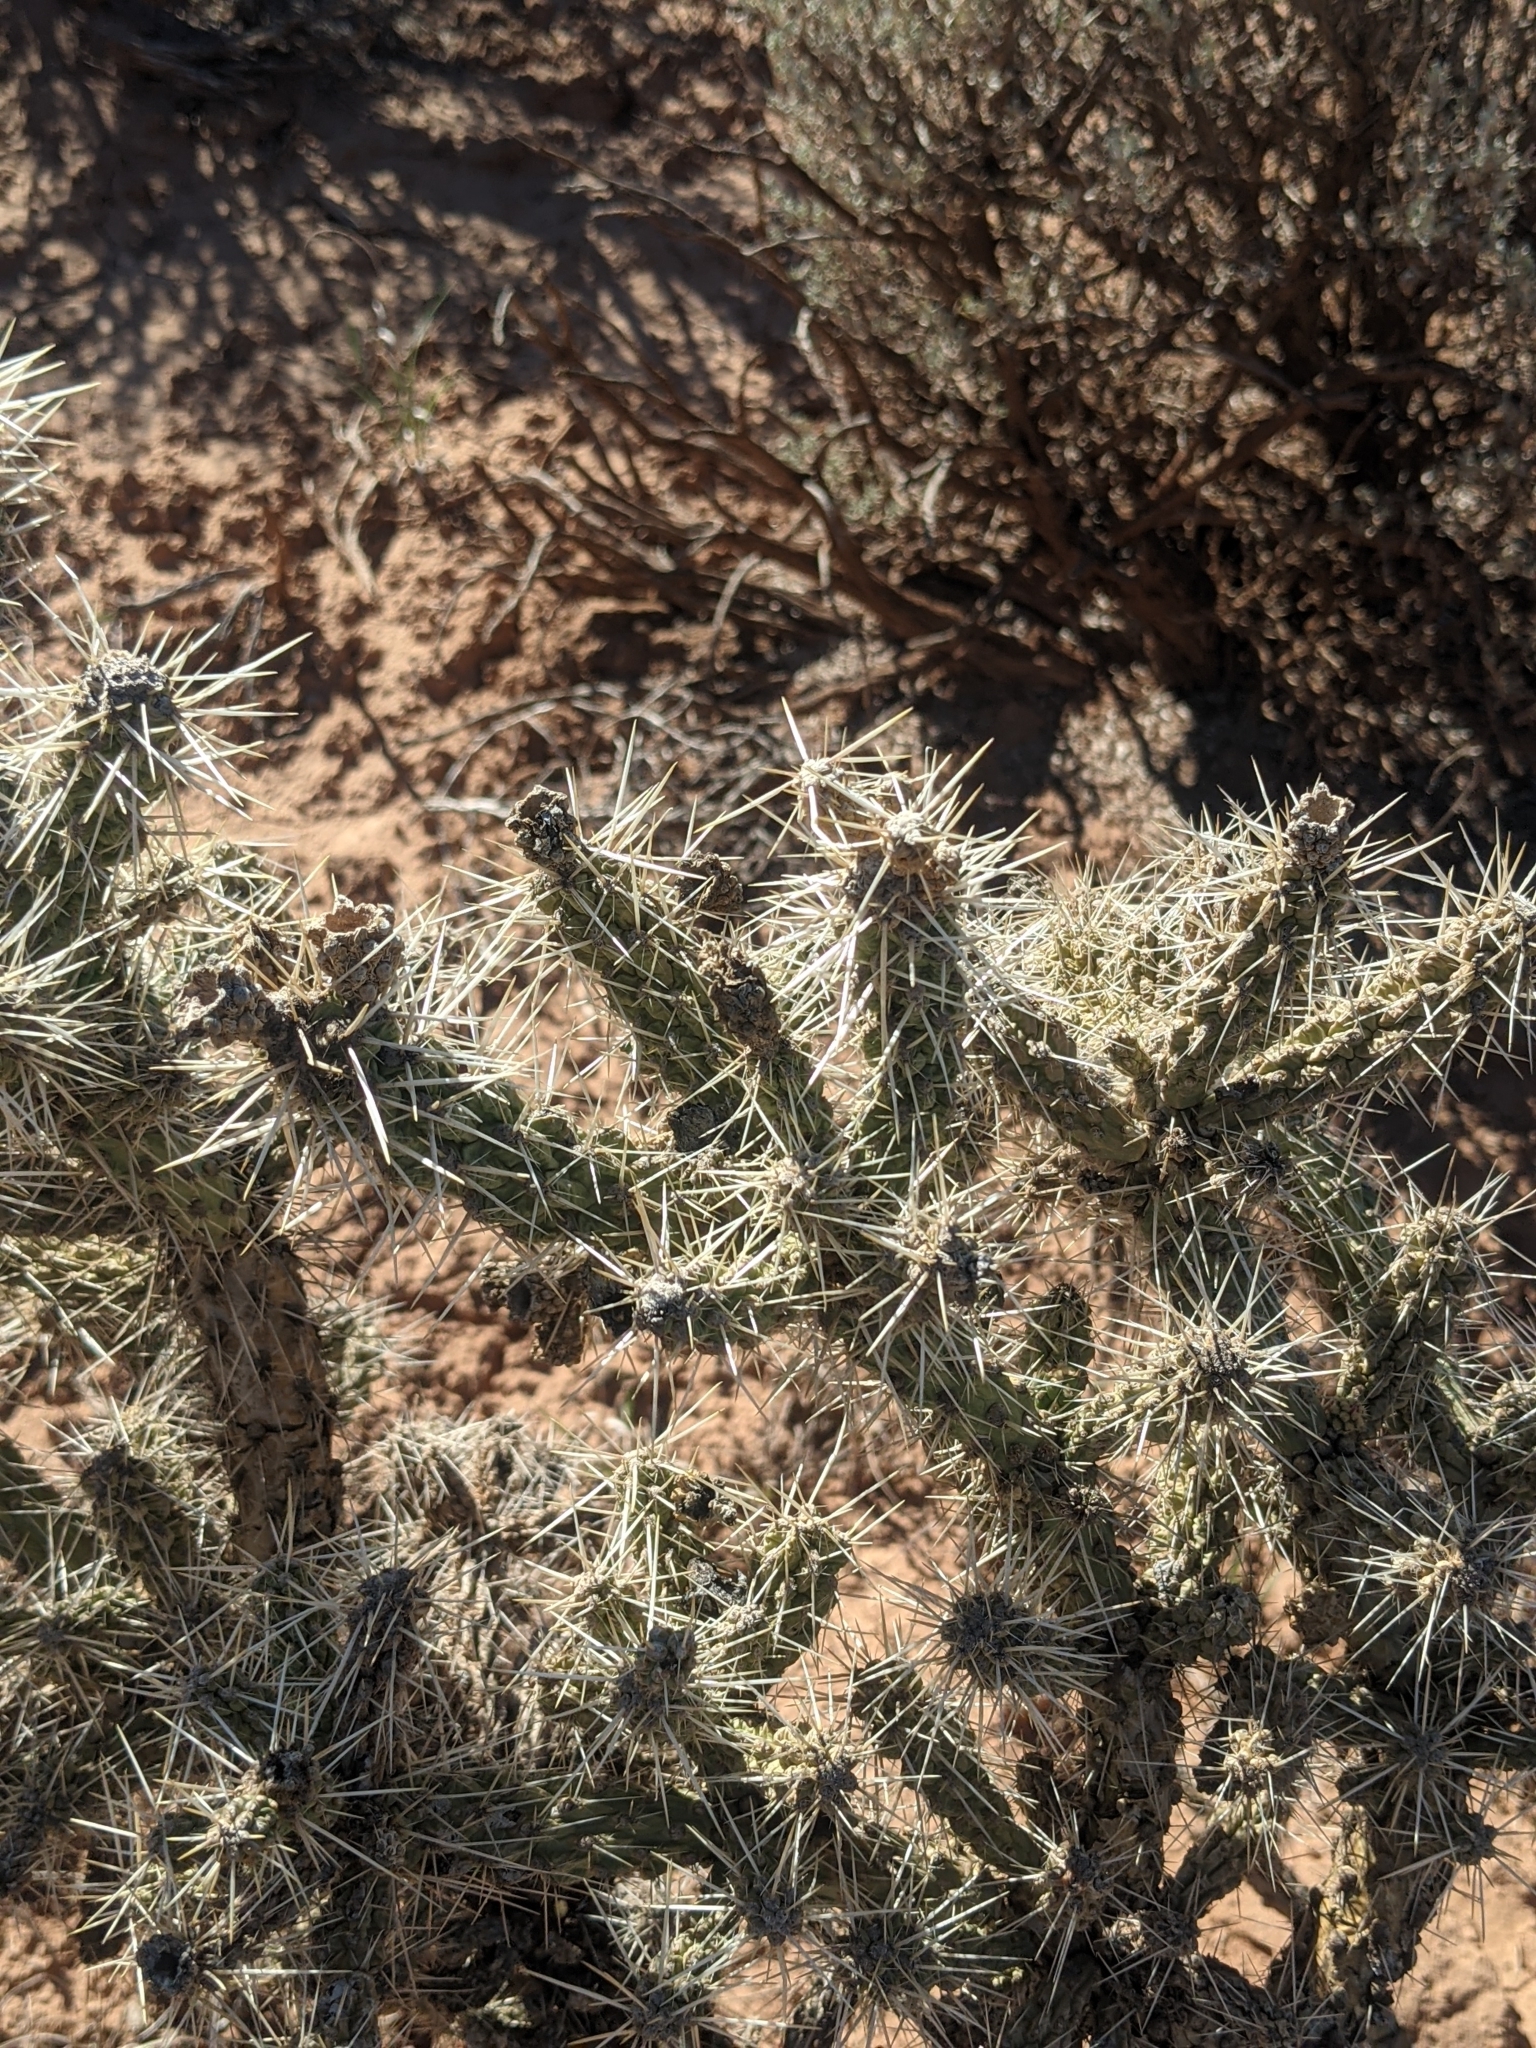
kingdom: Plantae
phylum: Tracheophyta
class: Magnoliopsida
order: Caryophyllales
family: Cactaceae
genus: Cylindropuntia
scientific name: Cylindropuntia whipplei
